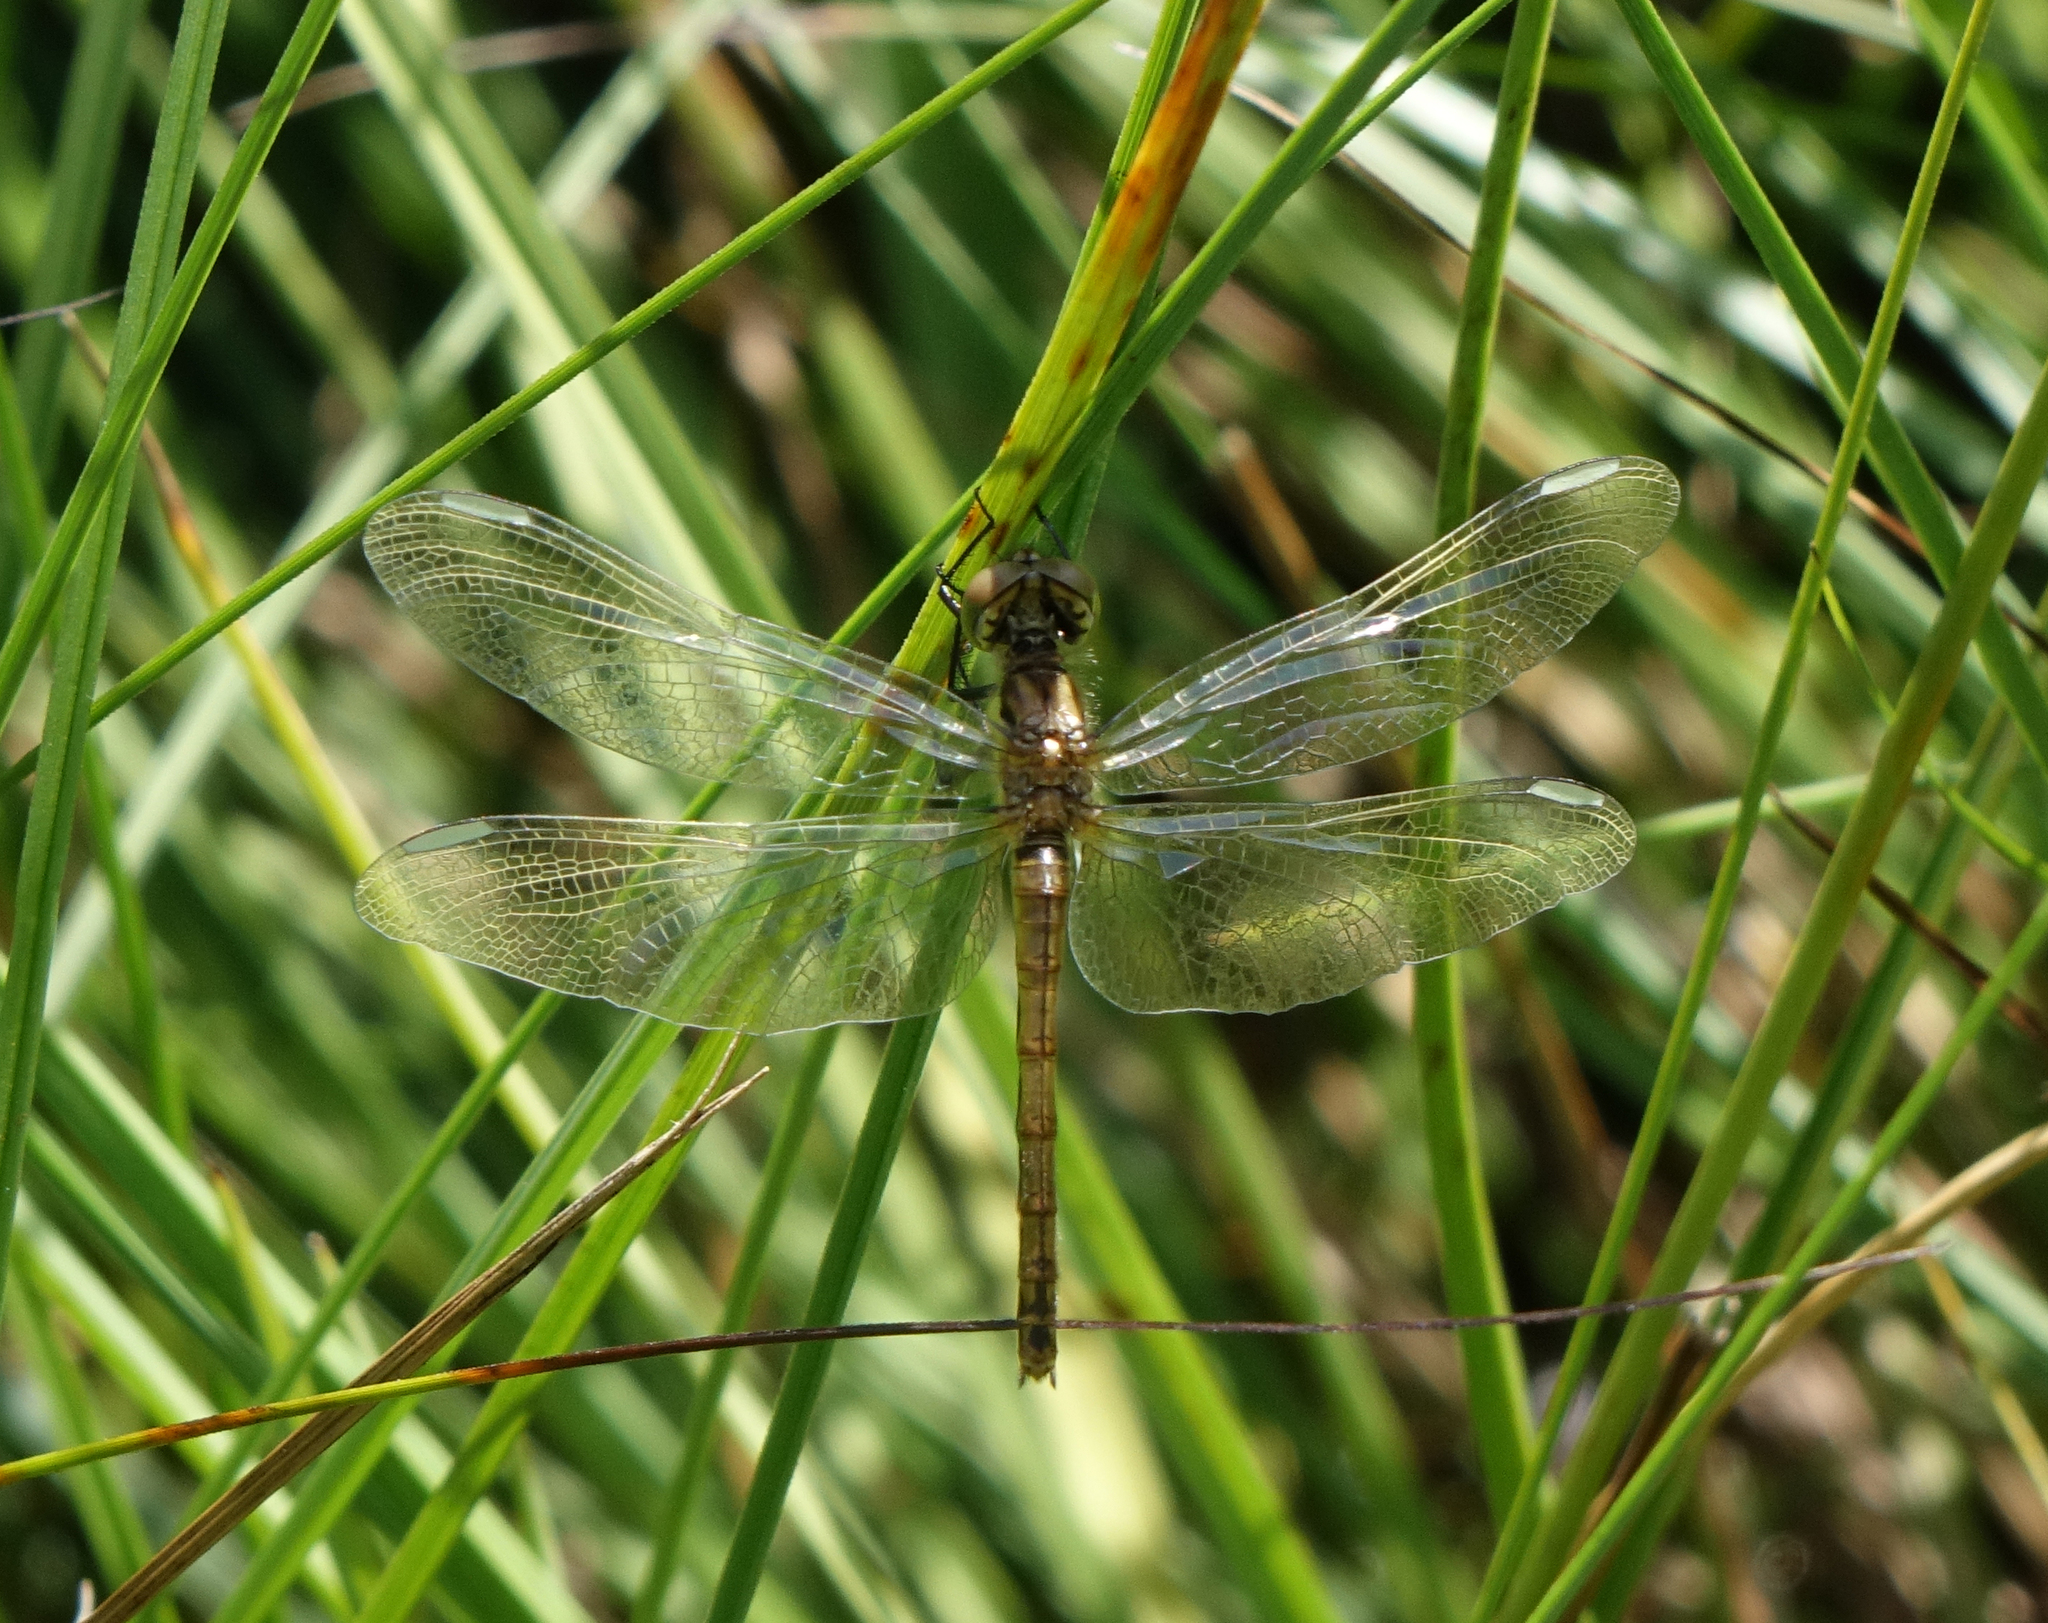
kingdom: Animalia
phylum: Arthropoda
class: Insecta
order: Odonata
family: Libellulidae
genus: Sympetrum
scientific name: Sympetrum pedemontanum
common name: Banded darter
